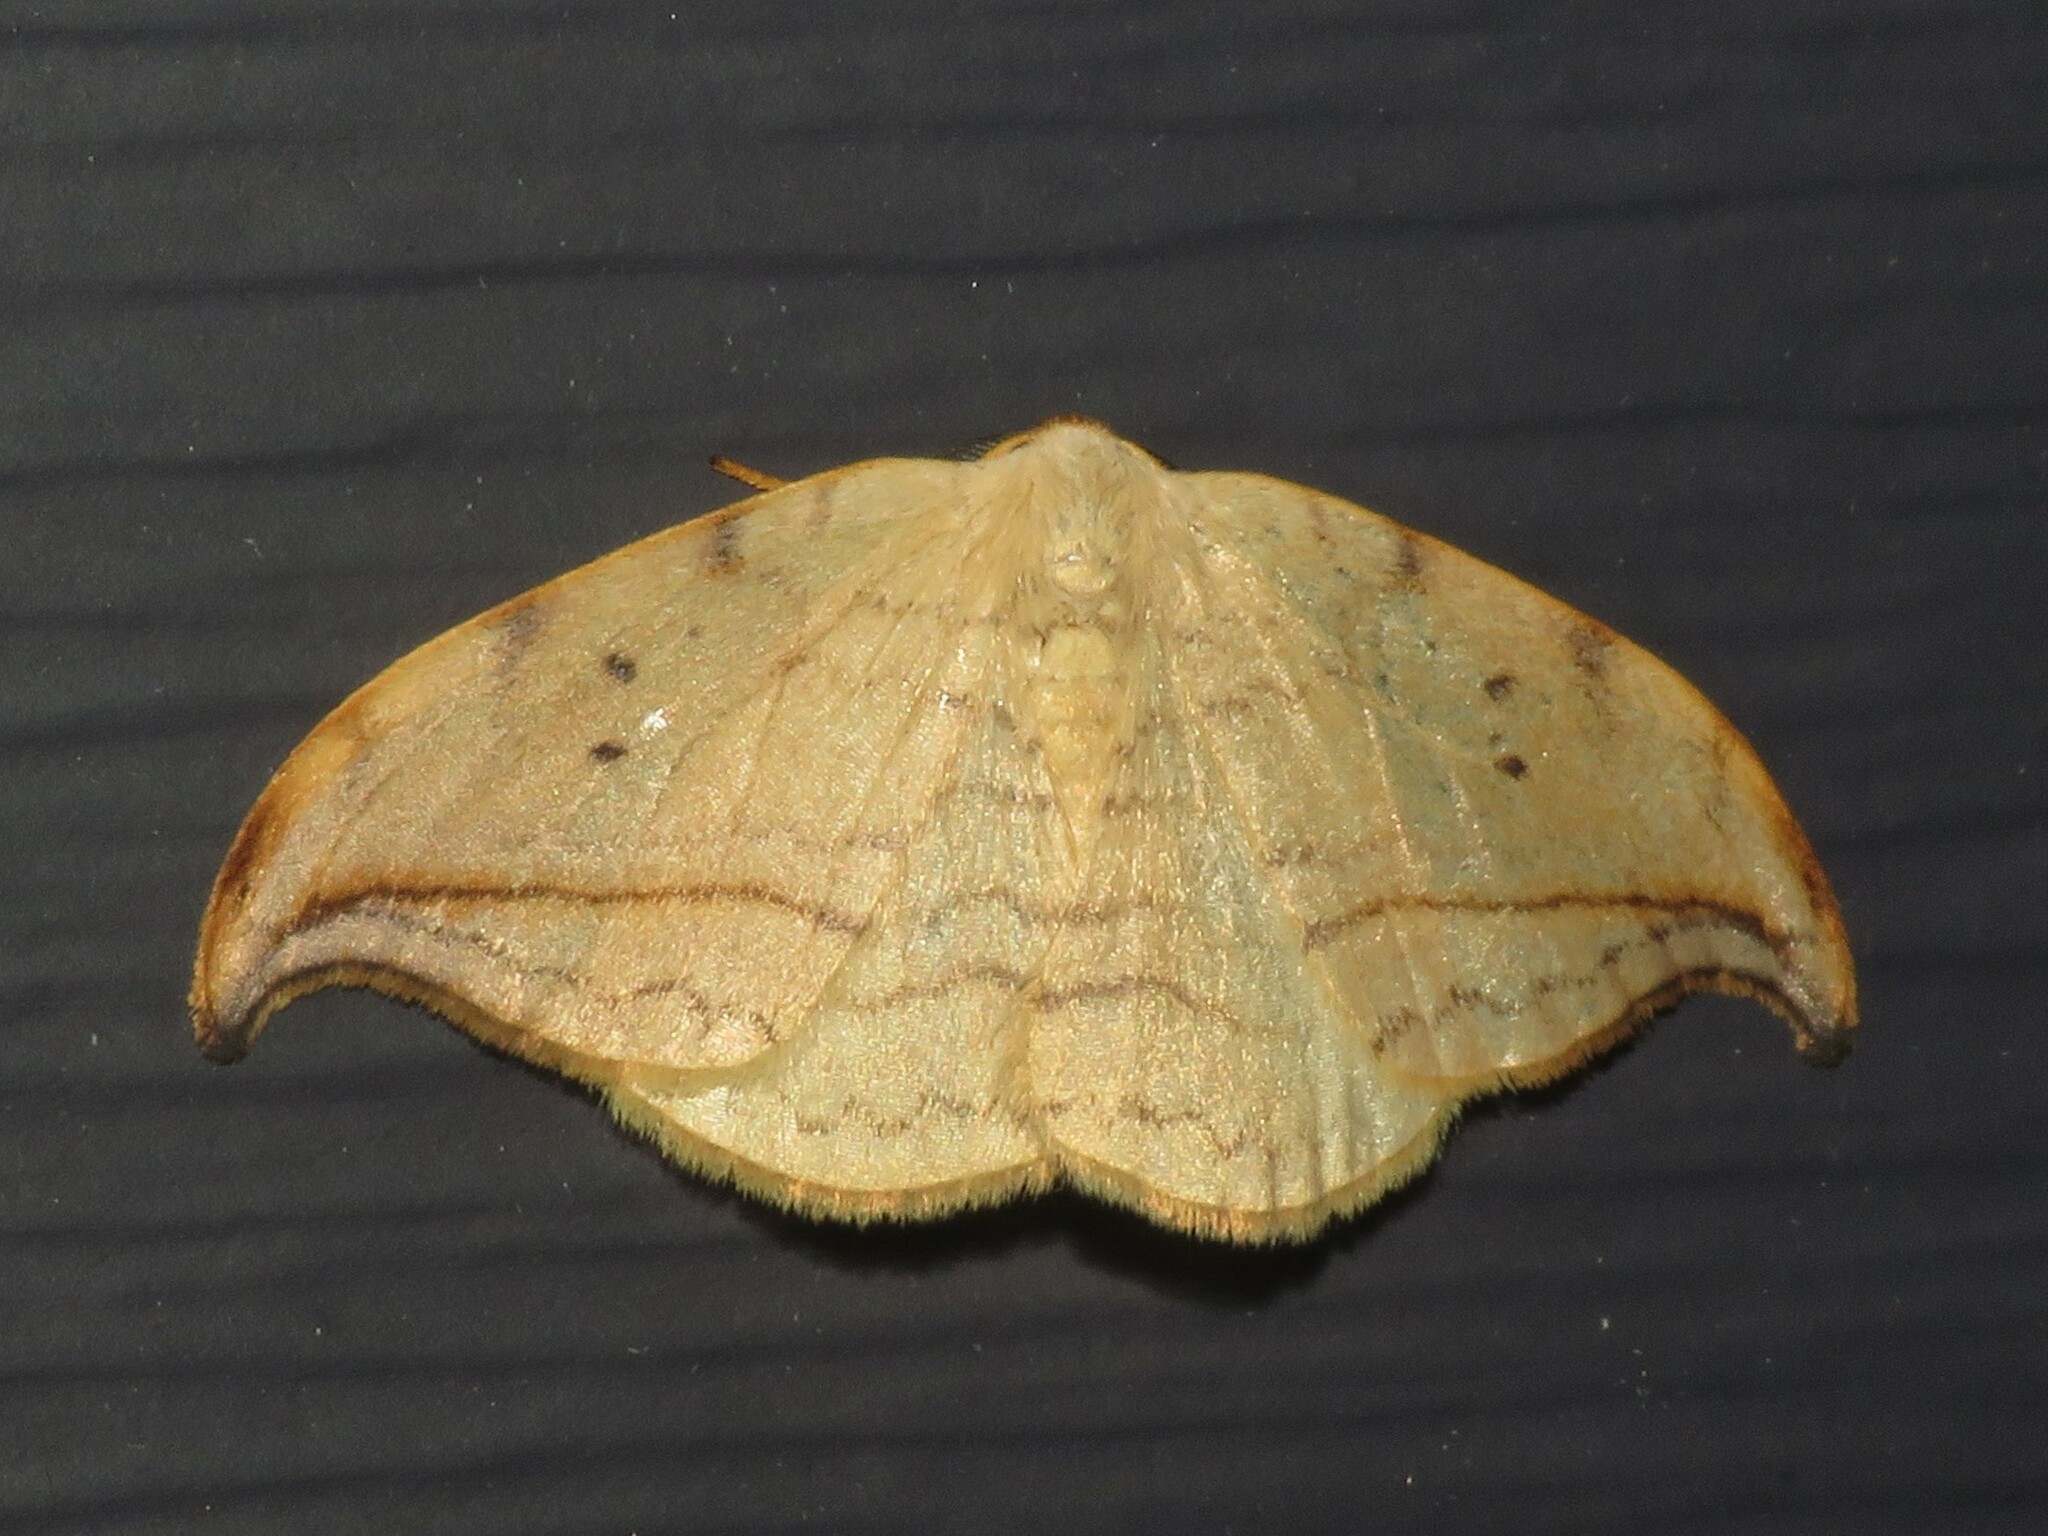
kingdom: Animalia
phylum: Arthropoda
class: Insecta
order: Lepidoptera
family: Drepanidae
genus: Drepana
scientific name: Drepana arcuata
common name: Arched hooktip moth
